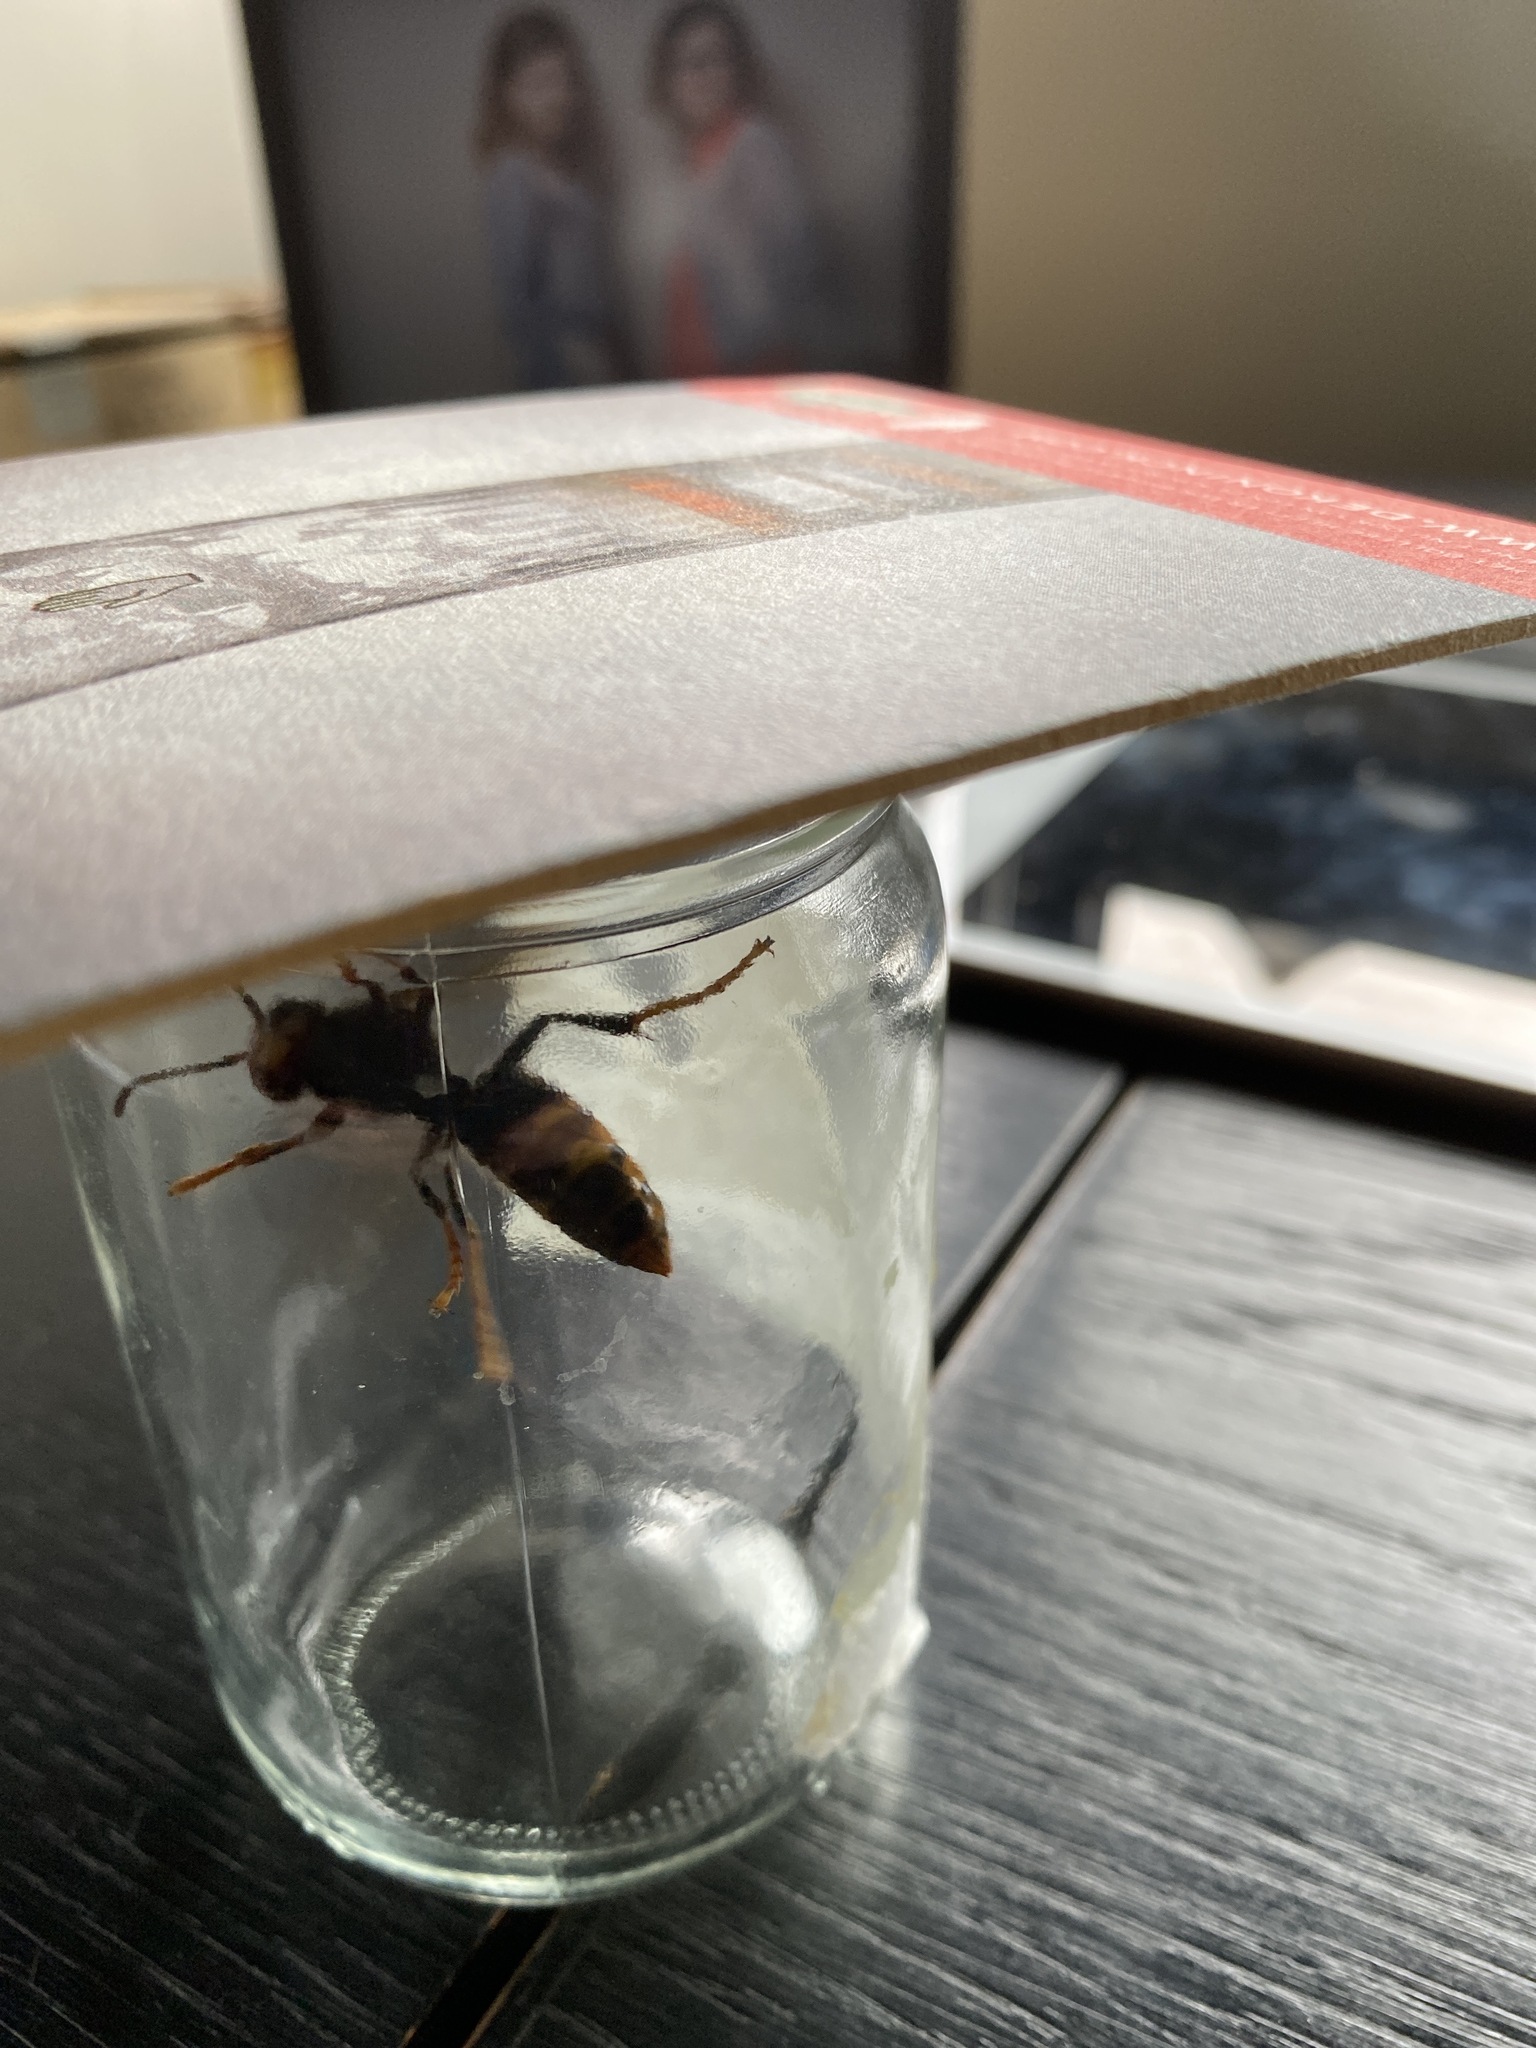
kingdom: Animalia
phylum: Arthropoda
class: Insecta
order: Hymenoptera
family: Vespidae
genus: Vespa
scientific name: Vespa velutina
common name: Asian hornet
